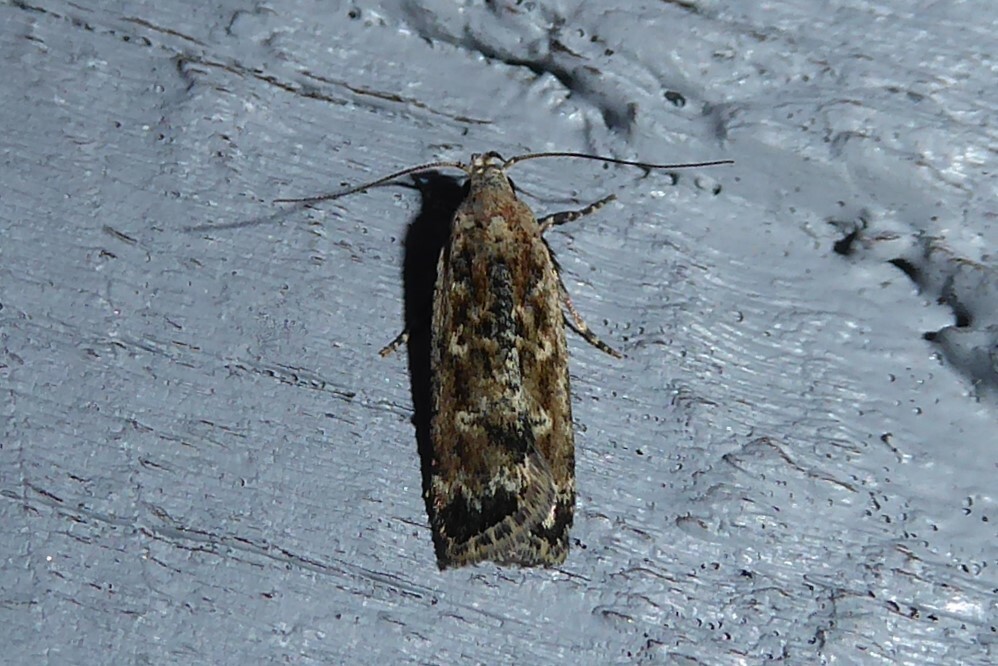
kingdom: Animalia
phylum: Arthropoda
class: Insecta
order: Lepidoptera
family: Gelechiidae
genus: Anisoplaca
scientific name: Anisoplaca achyrota
